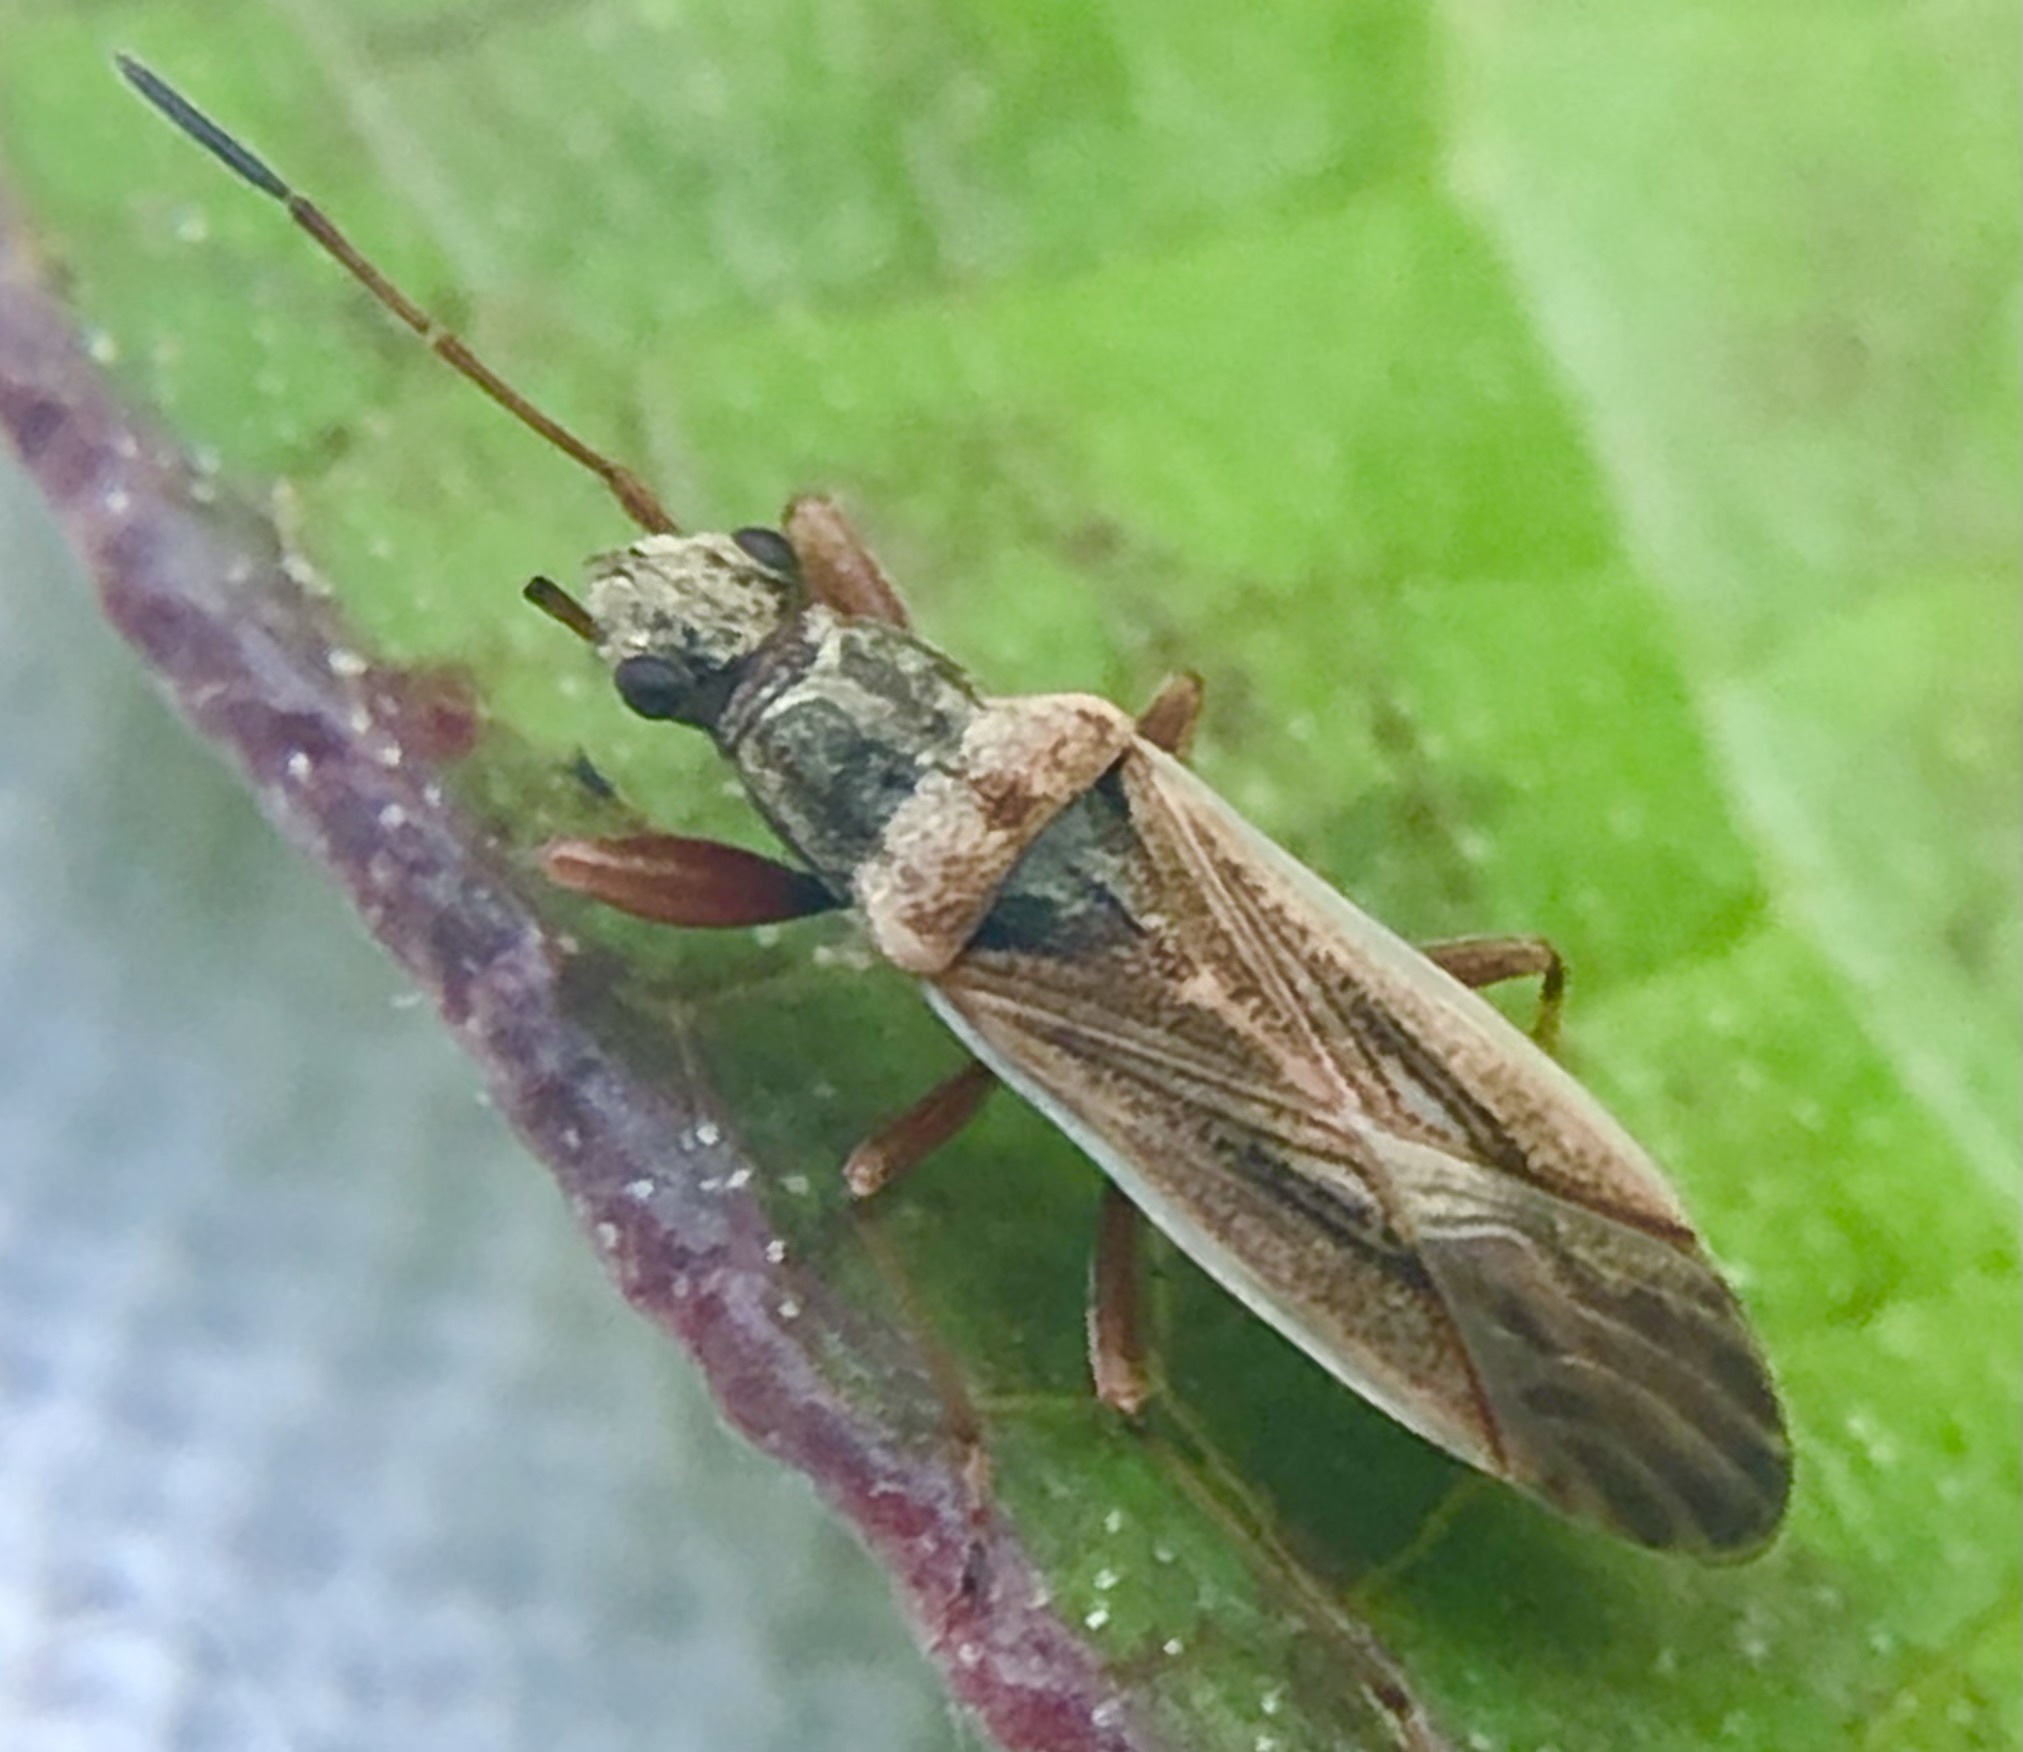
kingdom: Animalia
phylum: Arthropoda
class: Insecta
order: Hemiptera
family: Rhyparochromidae
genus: Paromius
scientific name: Paromius longulus
